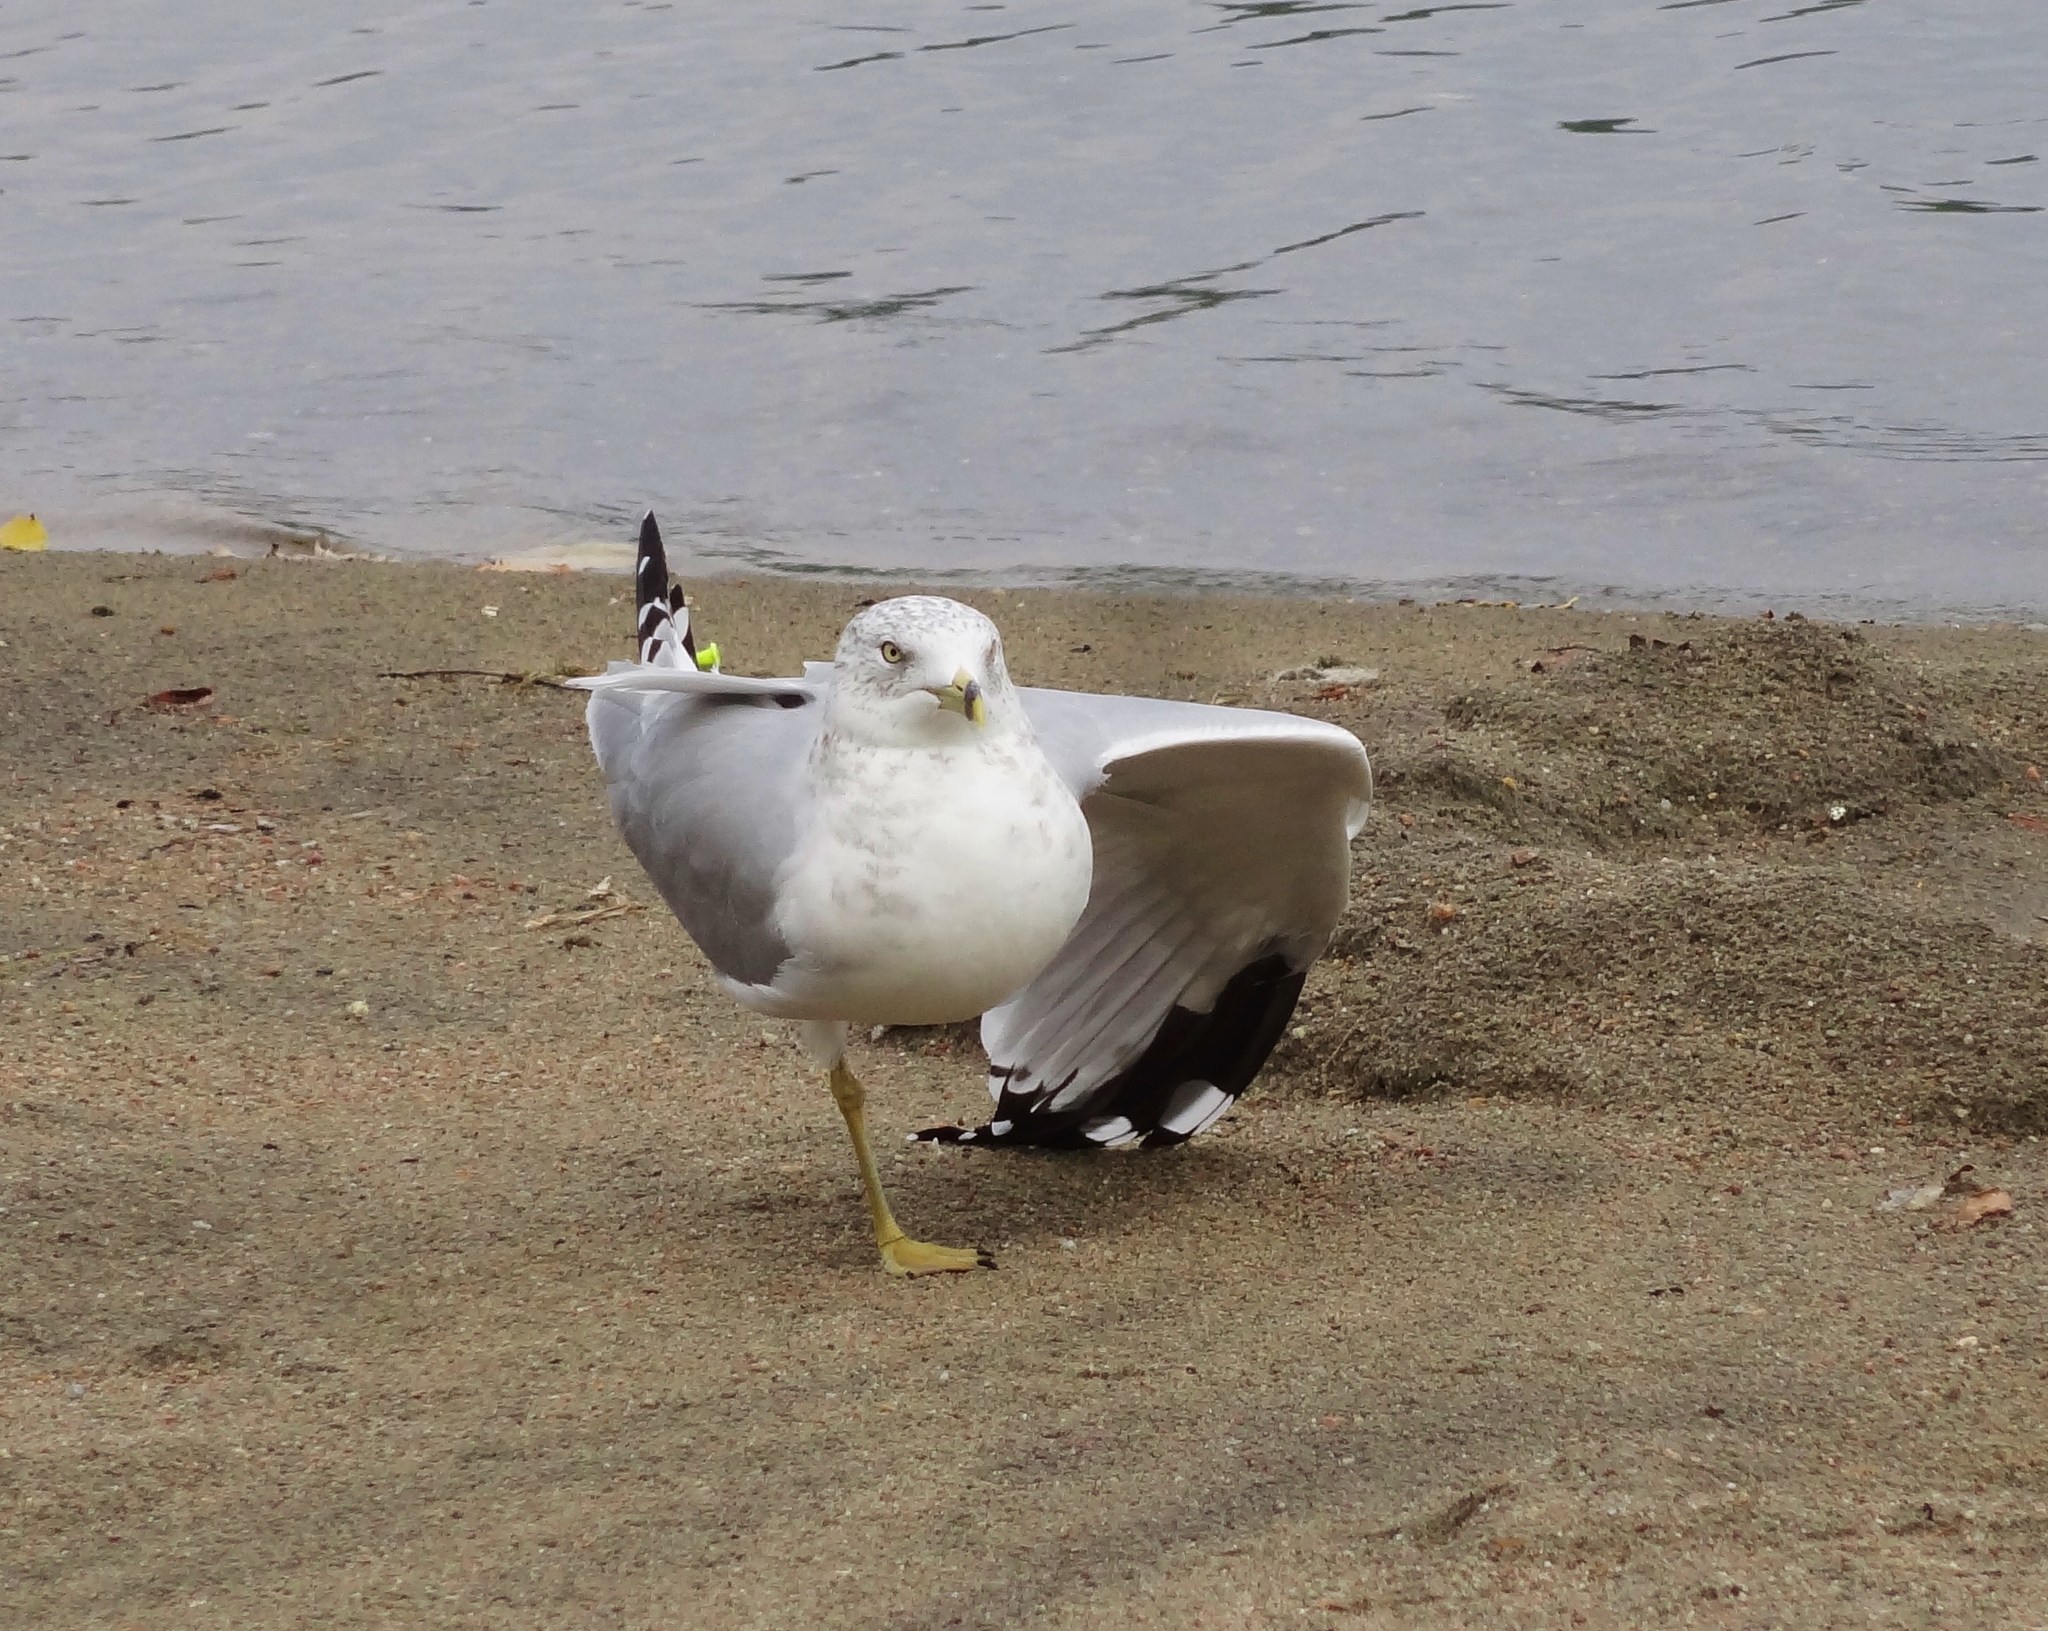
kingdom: Animalia
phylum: Chordata
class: Aves
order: Charadriiformes
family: Laridae
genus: Larus
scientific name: Larus delawarensis
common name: Ring-billed gull
